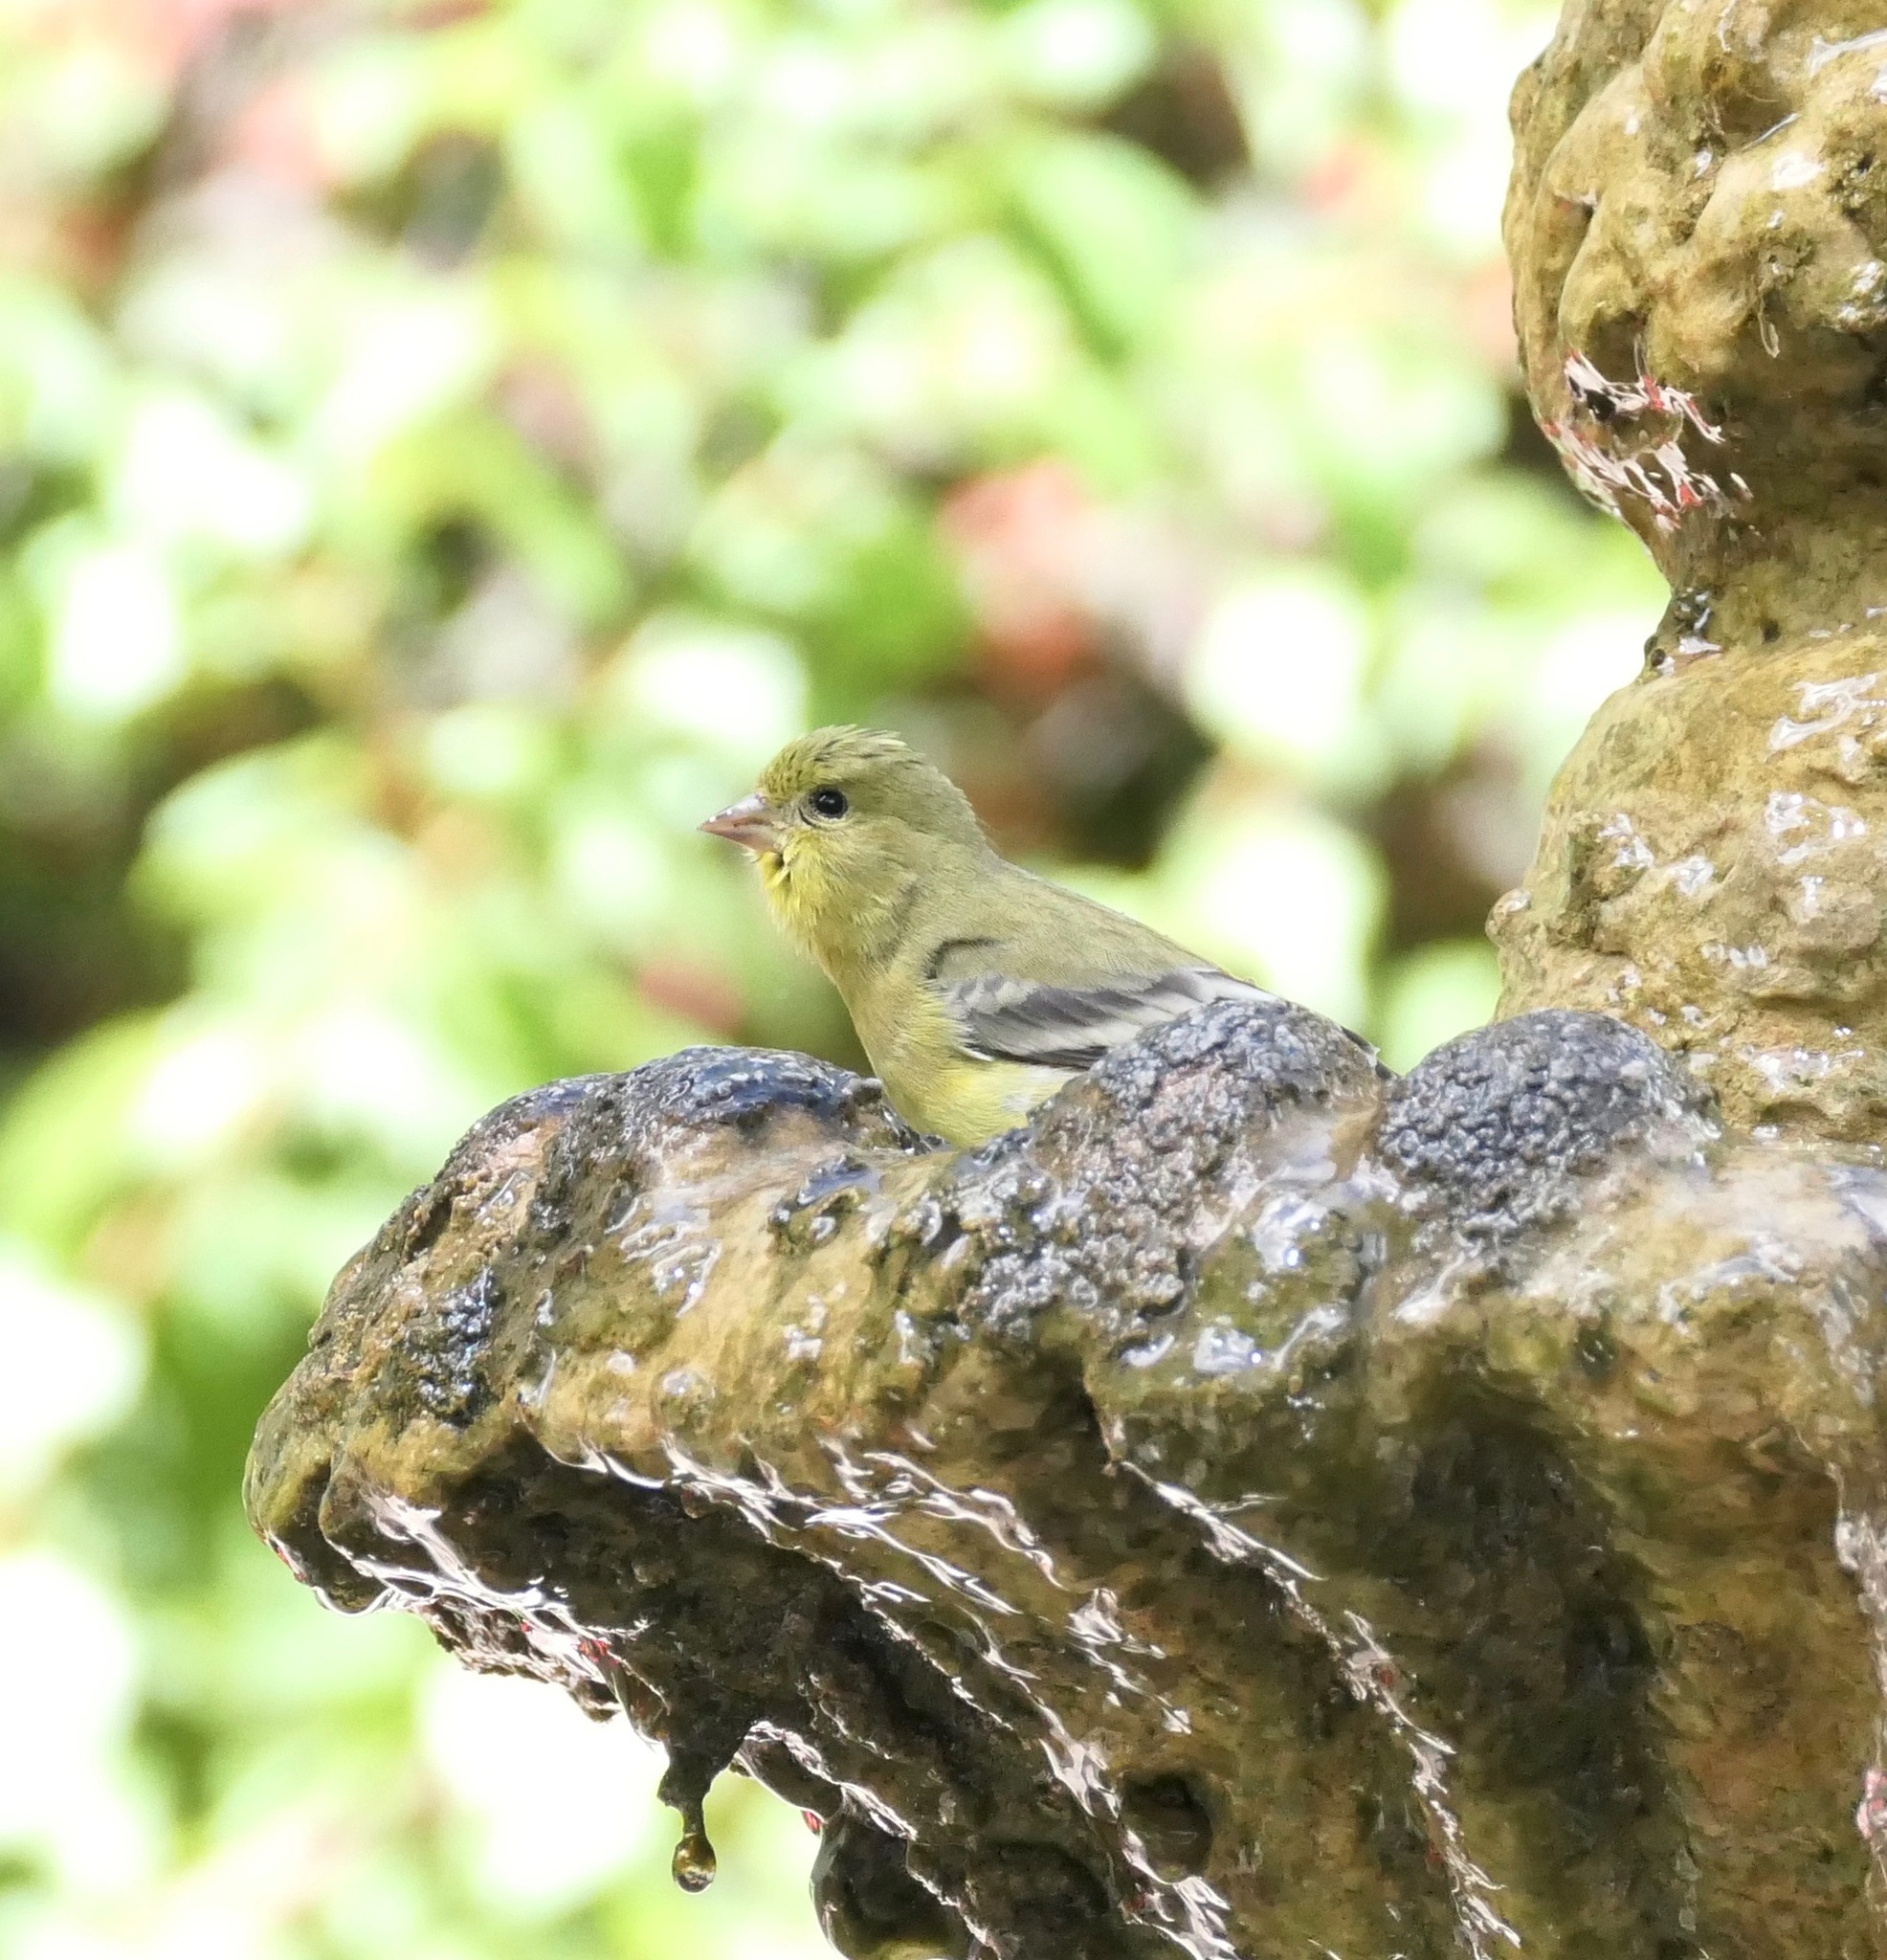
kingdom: Animalia
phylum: Chordata
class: Aves
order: Passeriformes
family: Fringillidae
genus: Spinus
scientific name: Spinus psaltria
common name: Lesser goldfinch
